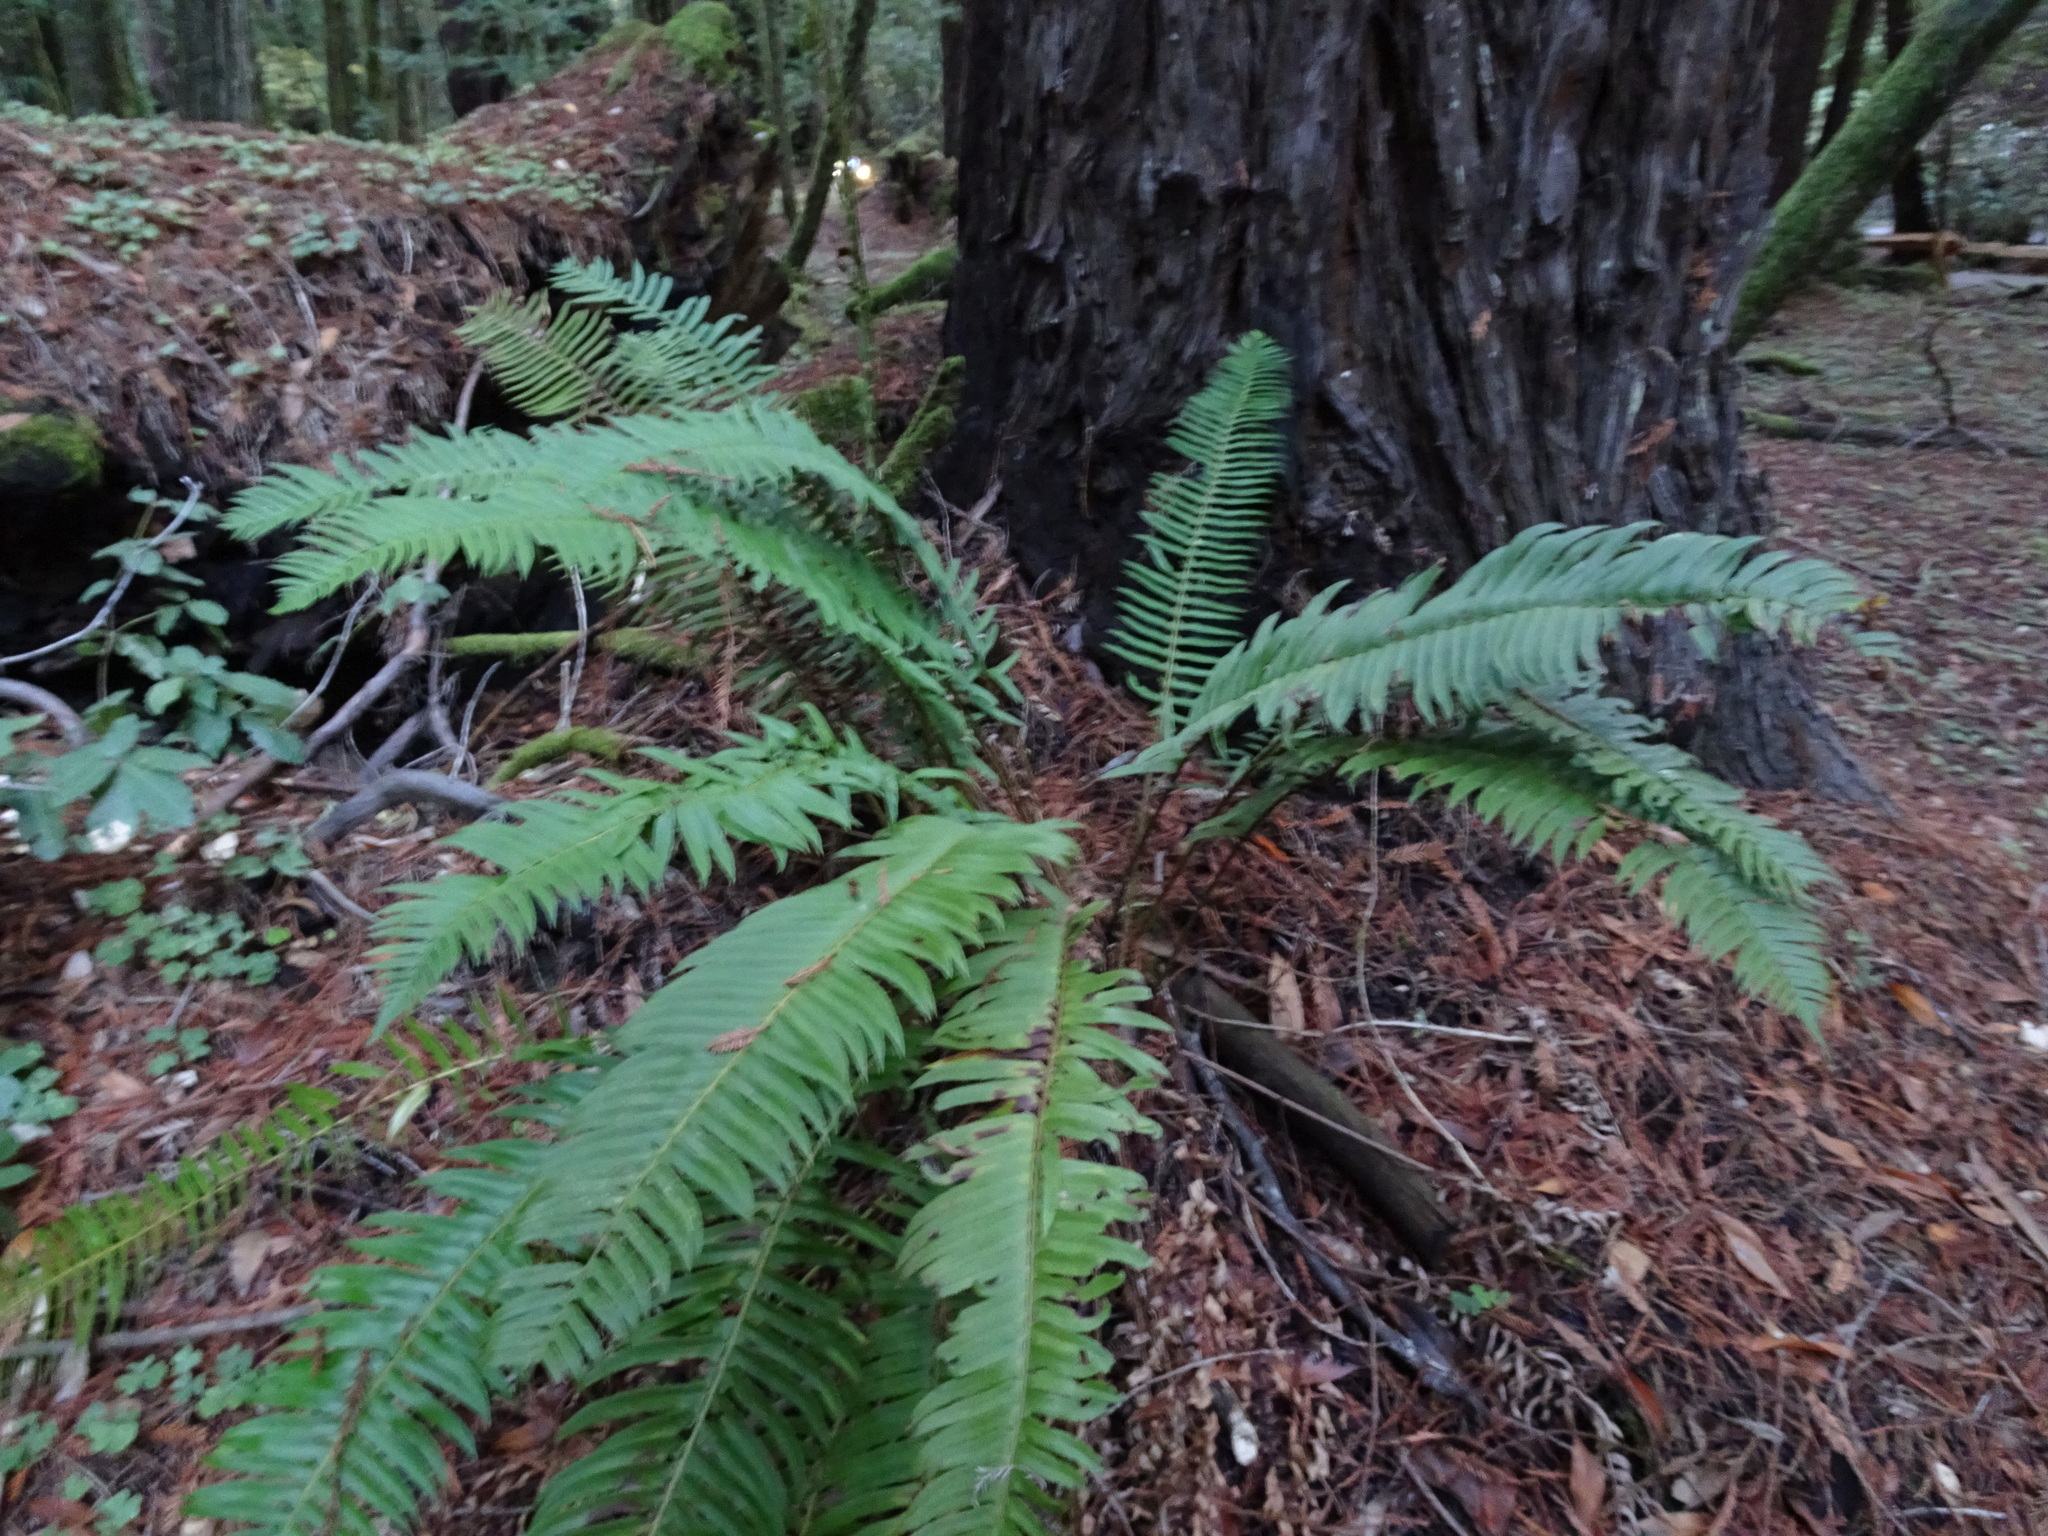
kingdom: Plantae
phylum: Tracheophyta
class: Polypodiopsida
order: Polypodiales
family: Dryopteridaceae
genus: Polystichum
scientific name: Polystichum munitum
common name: Western sword-fern
